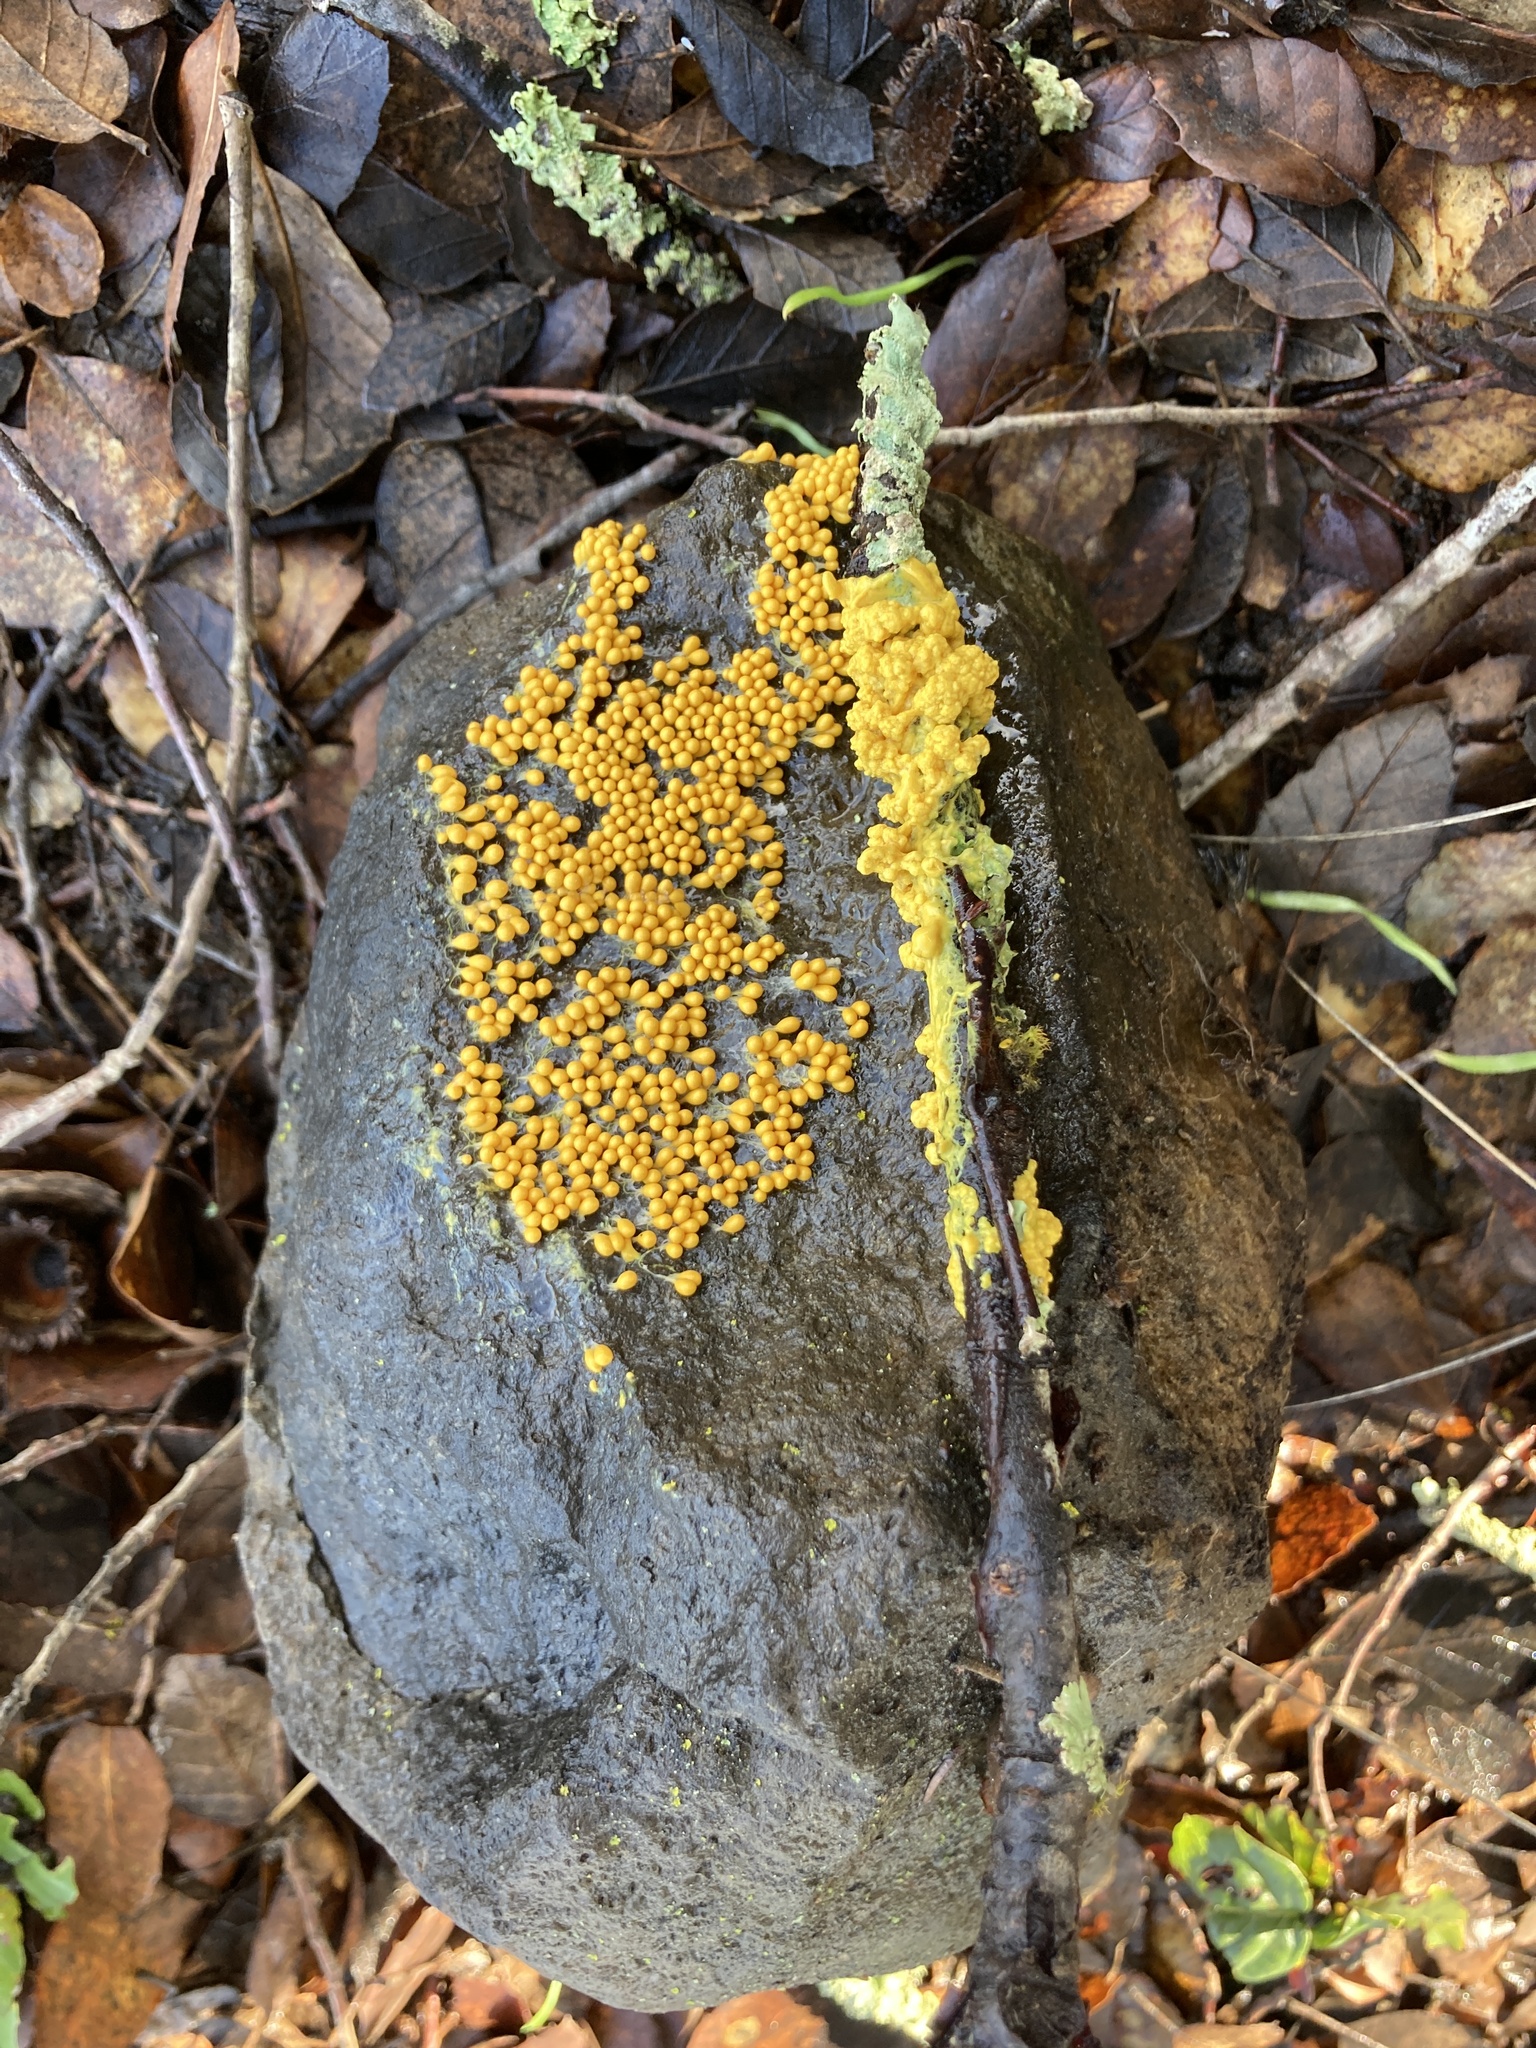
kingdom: Protozoa
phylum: Mycetozoa
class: Myxomycetes
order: Physarales
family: Physaraceae
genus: Leocarpus
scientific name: Leocarpus fragilis
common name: Insect-egg slime
